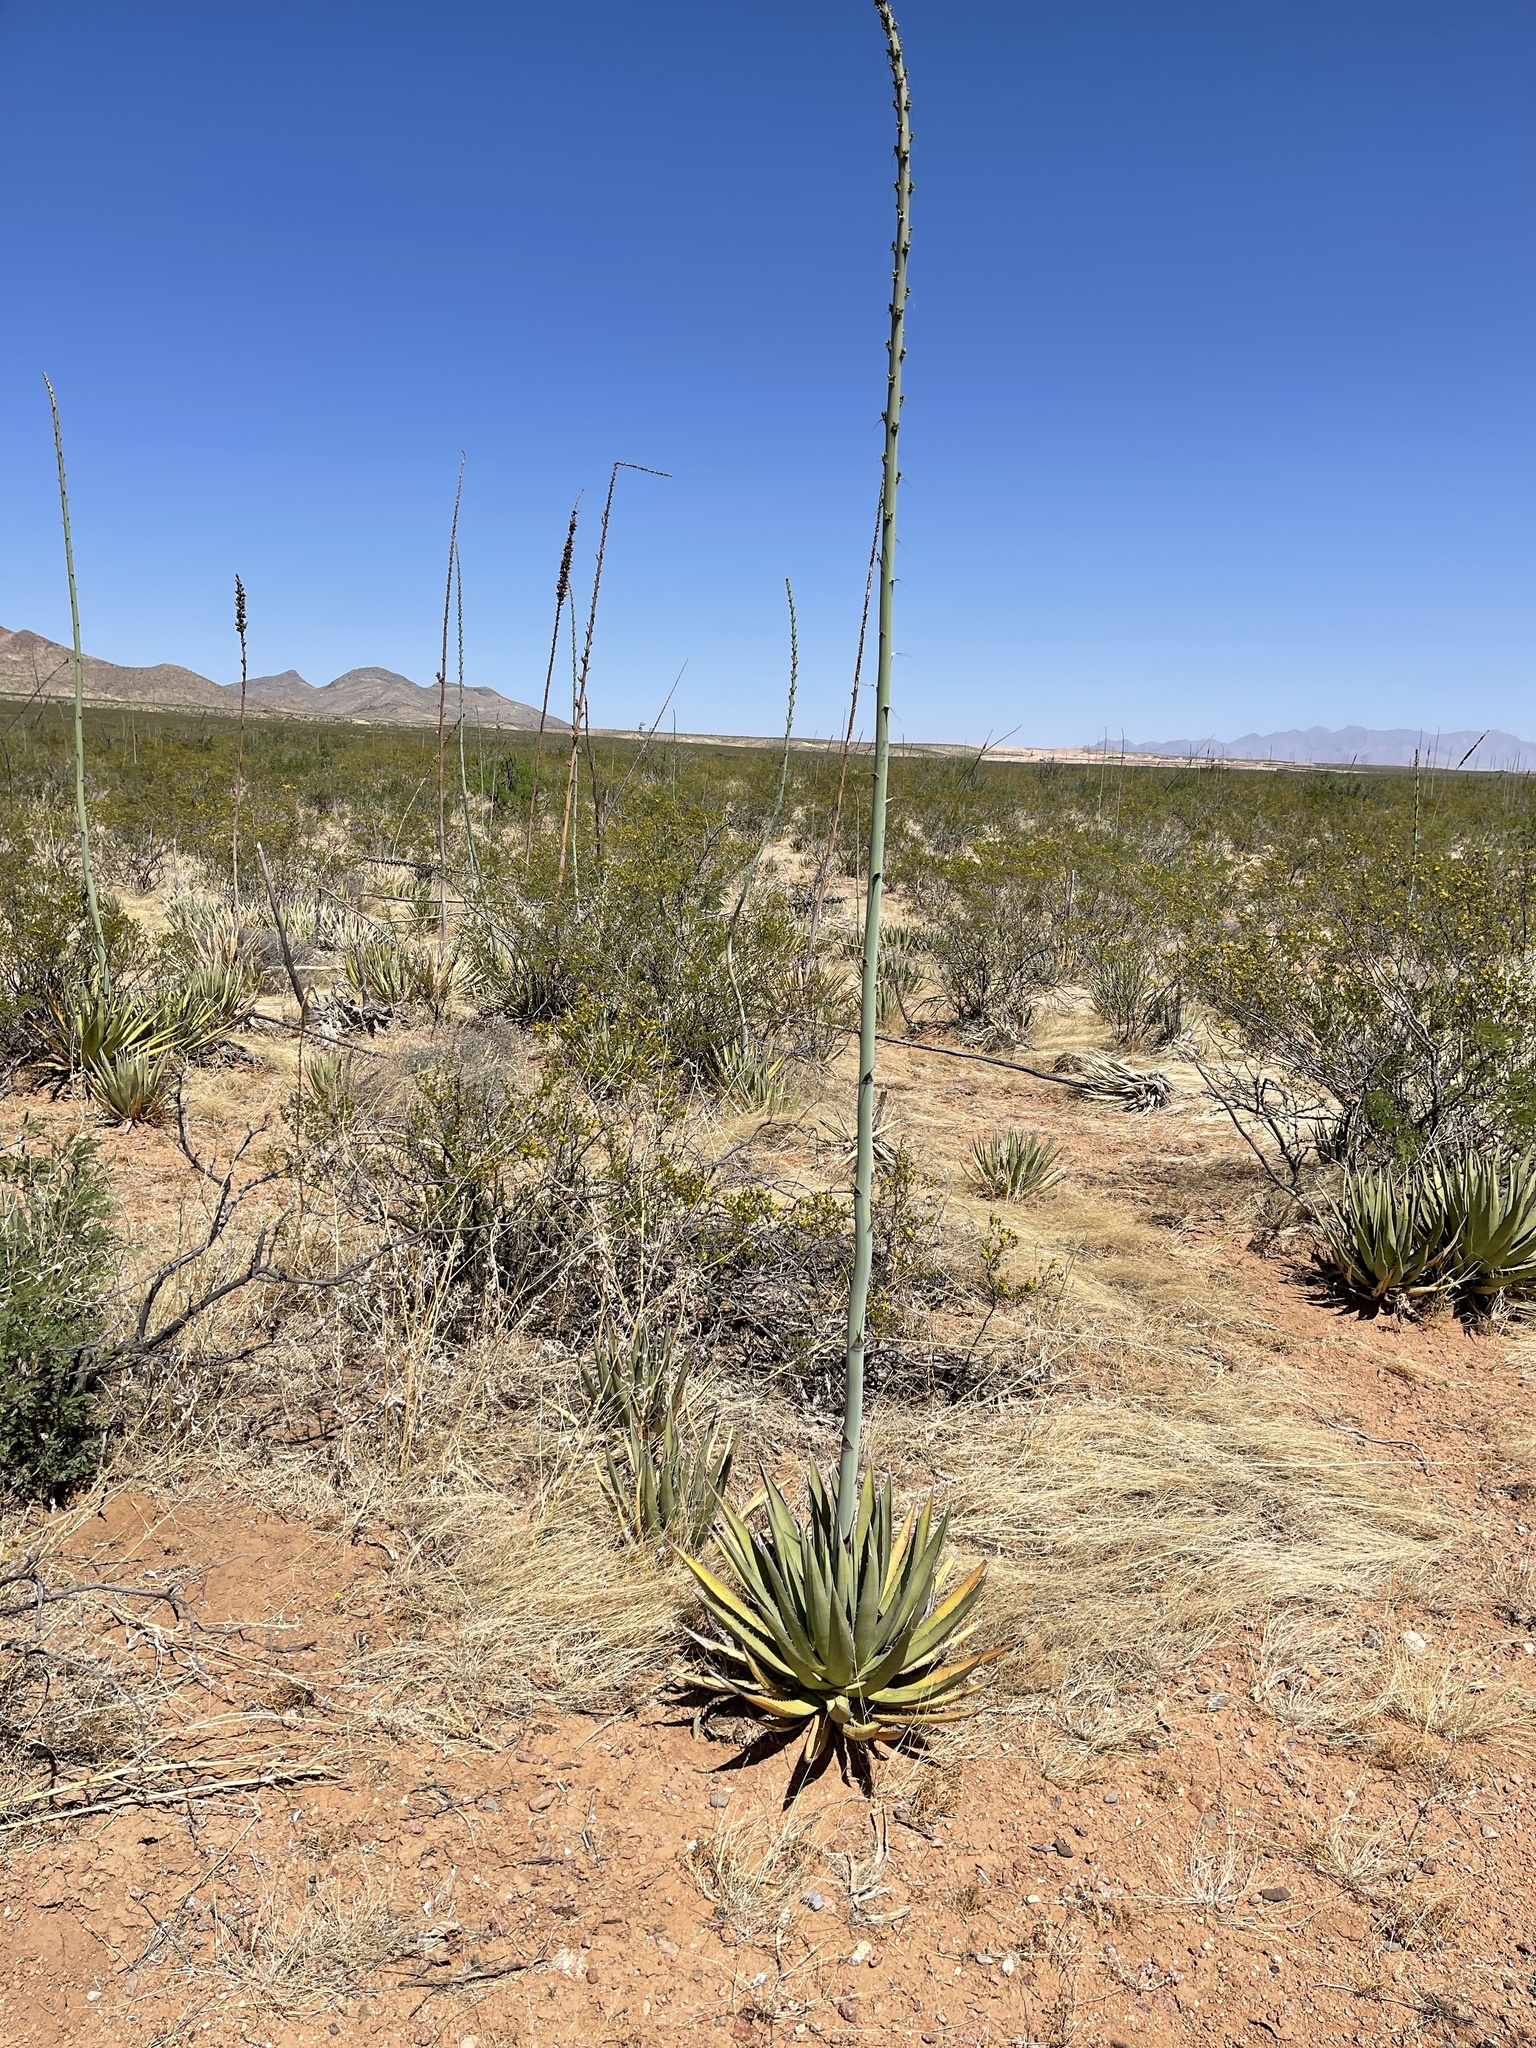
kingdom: Plantae
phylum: Tracheophyta
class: Liliopsida
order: Asparagales
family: Asparagaceae
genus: Agave
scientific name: Agave lechuguilla
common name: Lecheguilla agave
